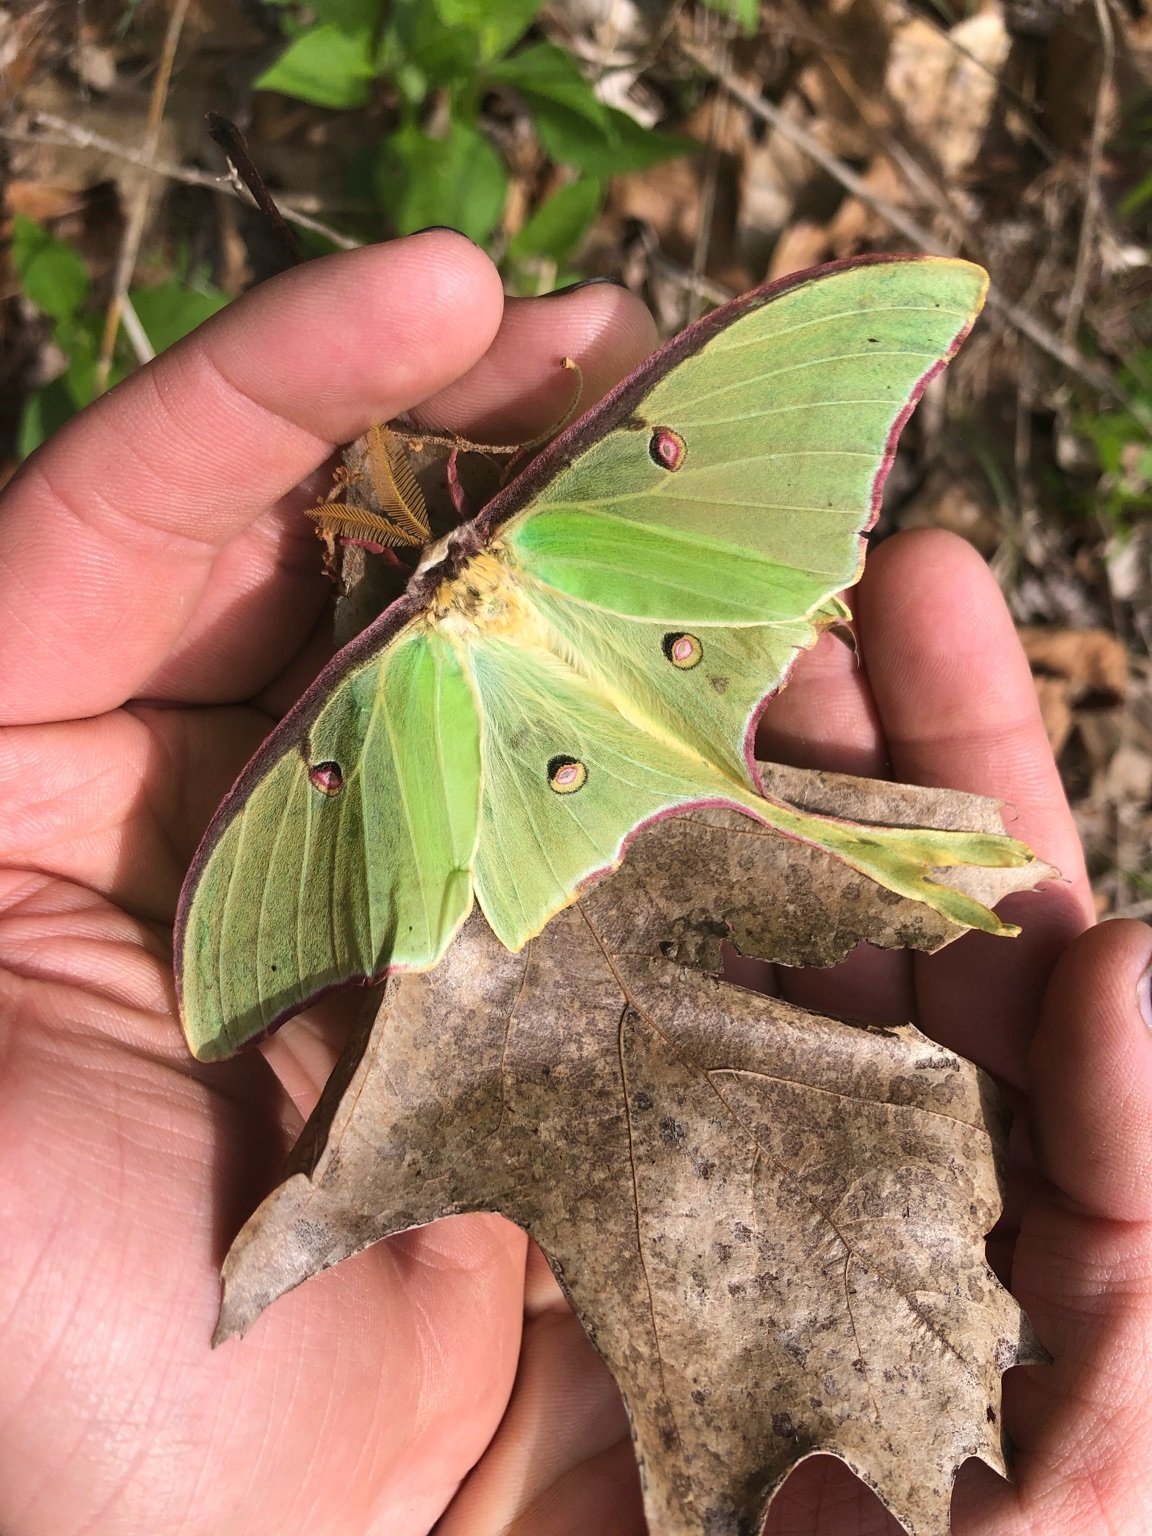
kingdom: Animalia
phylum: Arthropoda
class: Insecta
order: Lepidoptera
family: Saturniidae
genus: Actias
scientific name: Actias luna
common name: Luna moth
